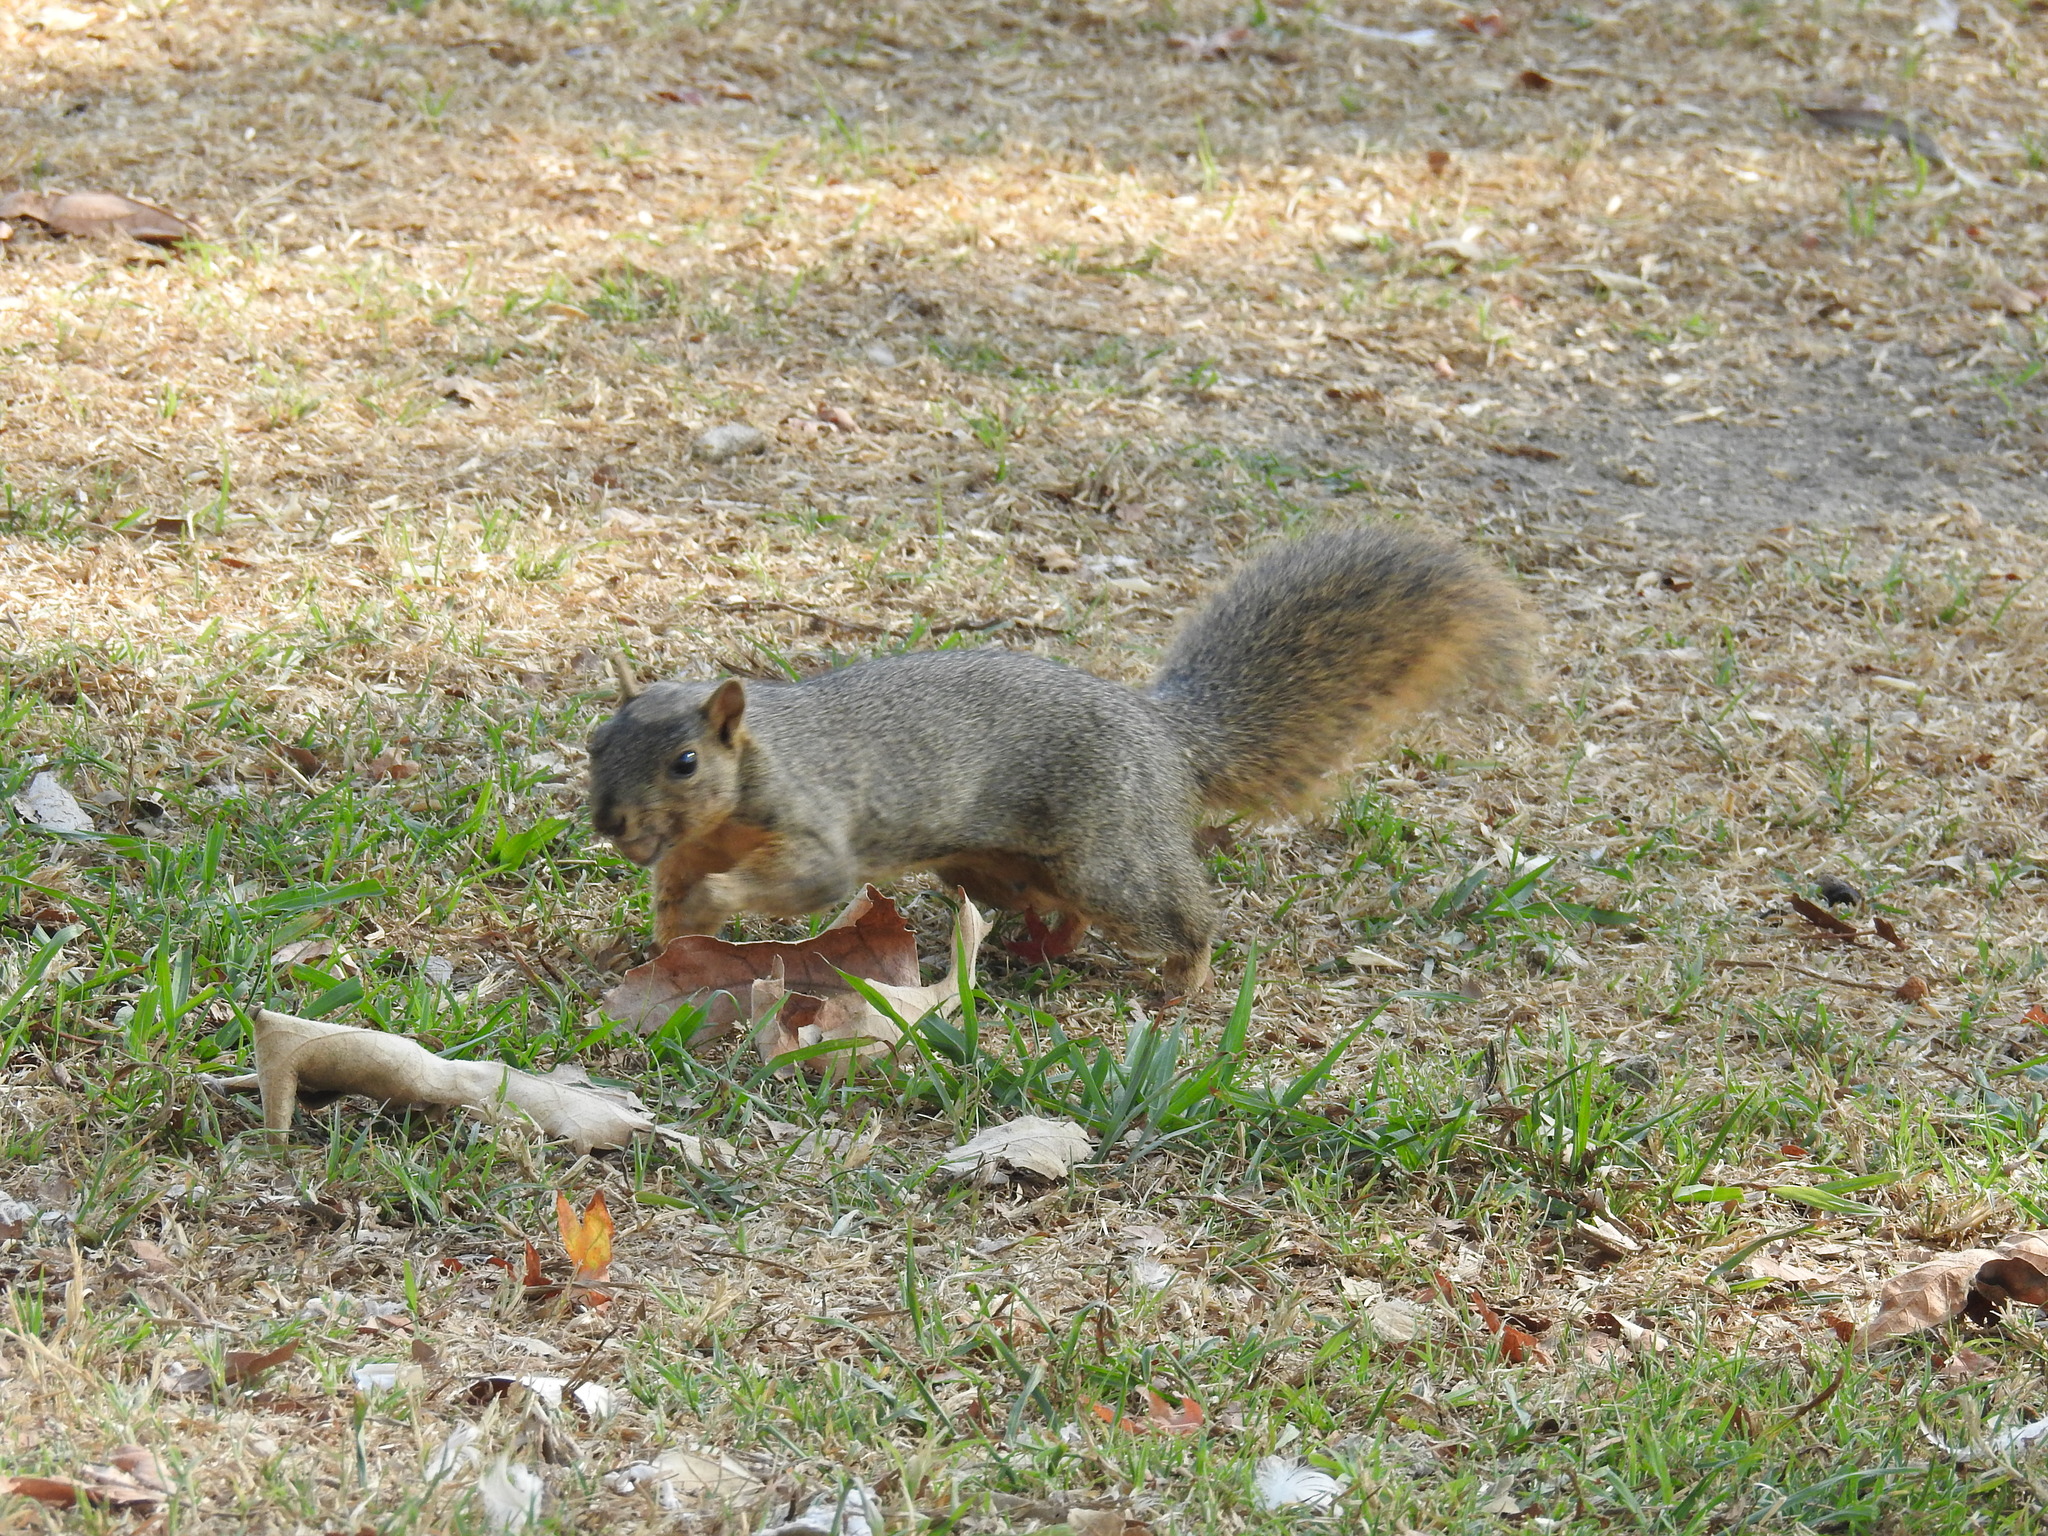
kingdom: Animalia
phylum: Chordata
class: Mammalia
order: Rodentia
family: Sciuridae
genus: Sciurus
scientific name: Sciurus niger
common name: Fox squirrel
